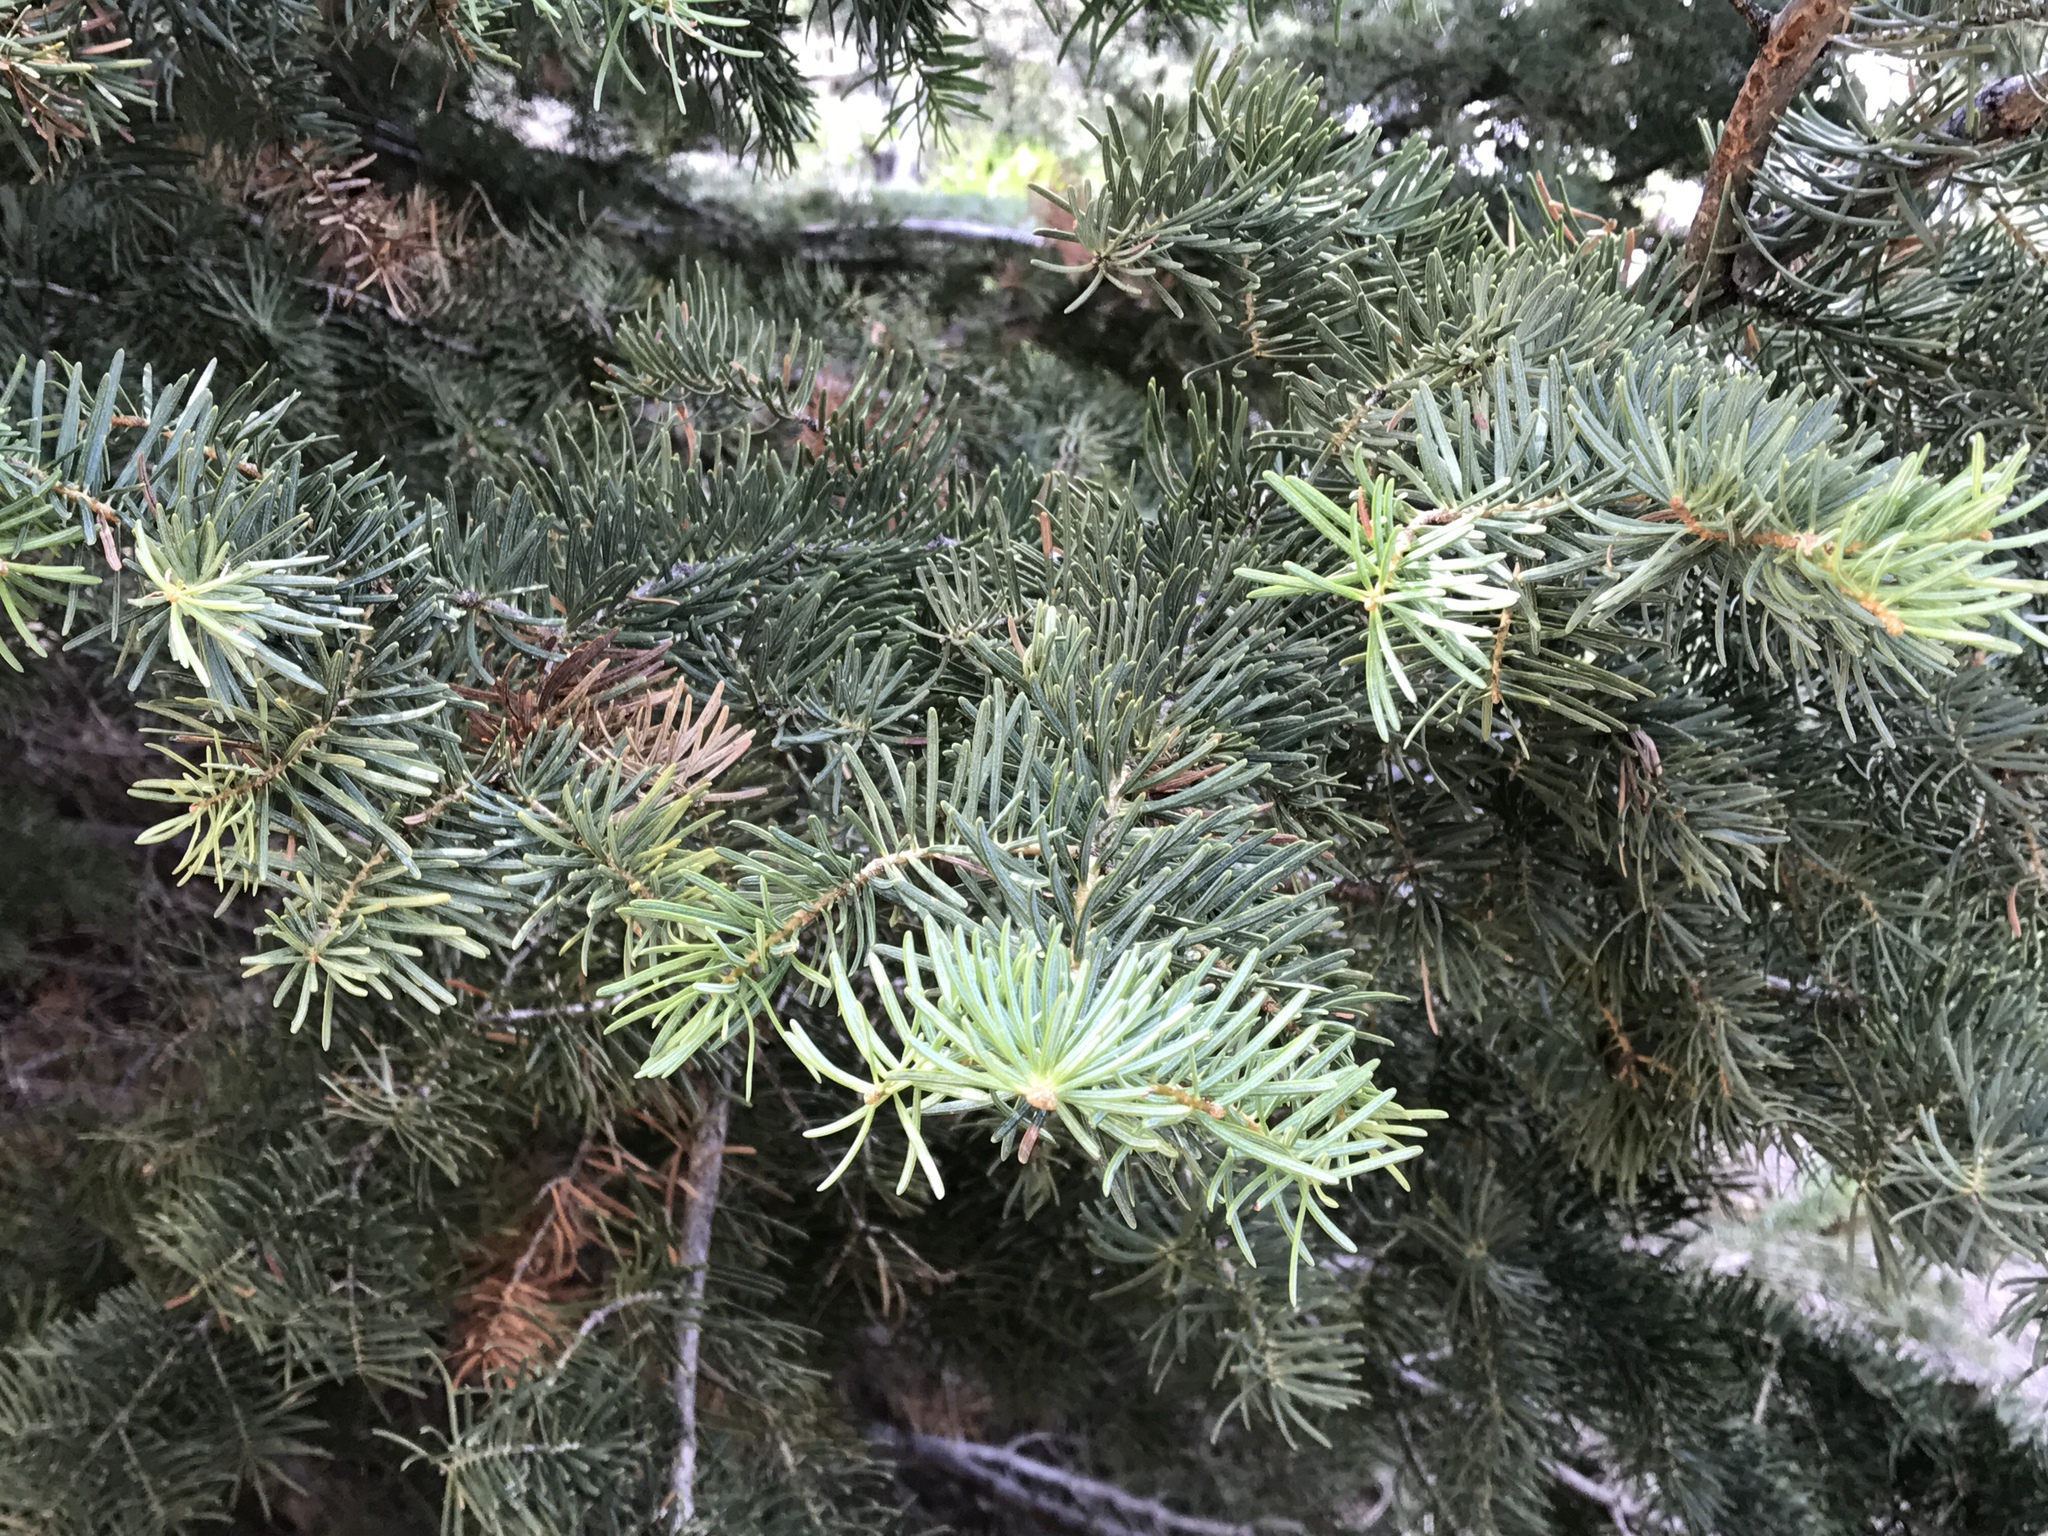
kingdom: Plantae
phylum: Tracheophyta
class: Pinopsida
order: Pinales
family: Pinaceae
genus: Abies
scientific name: Abies concolor
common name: Colorado fir
